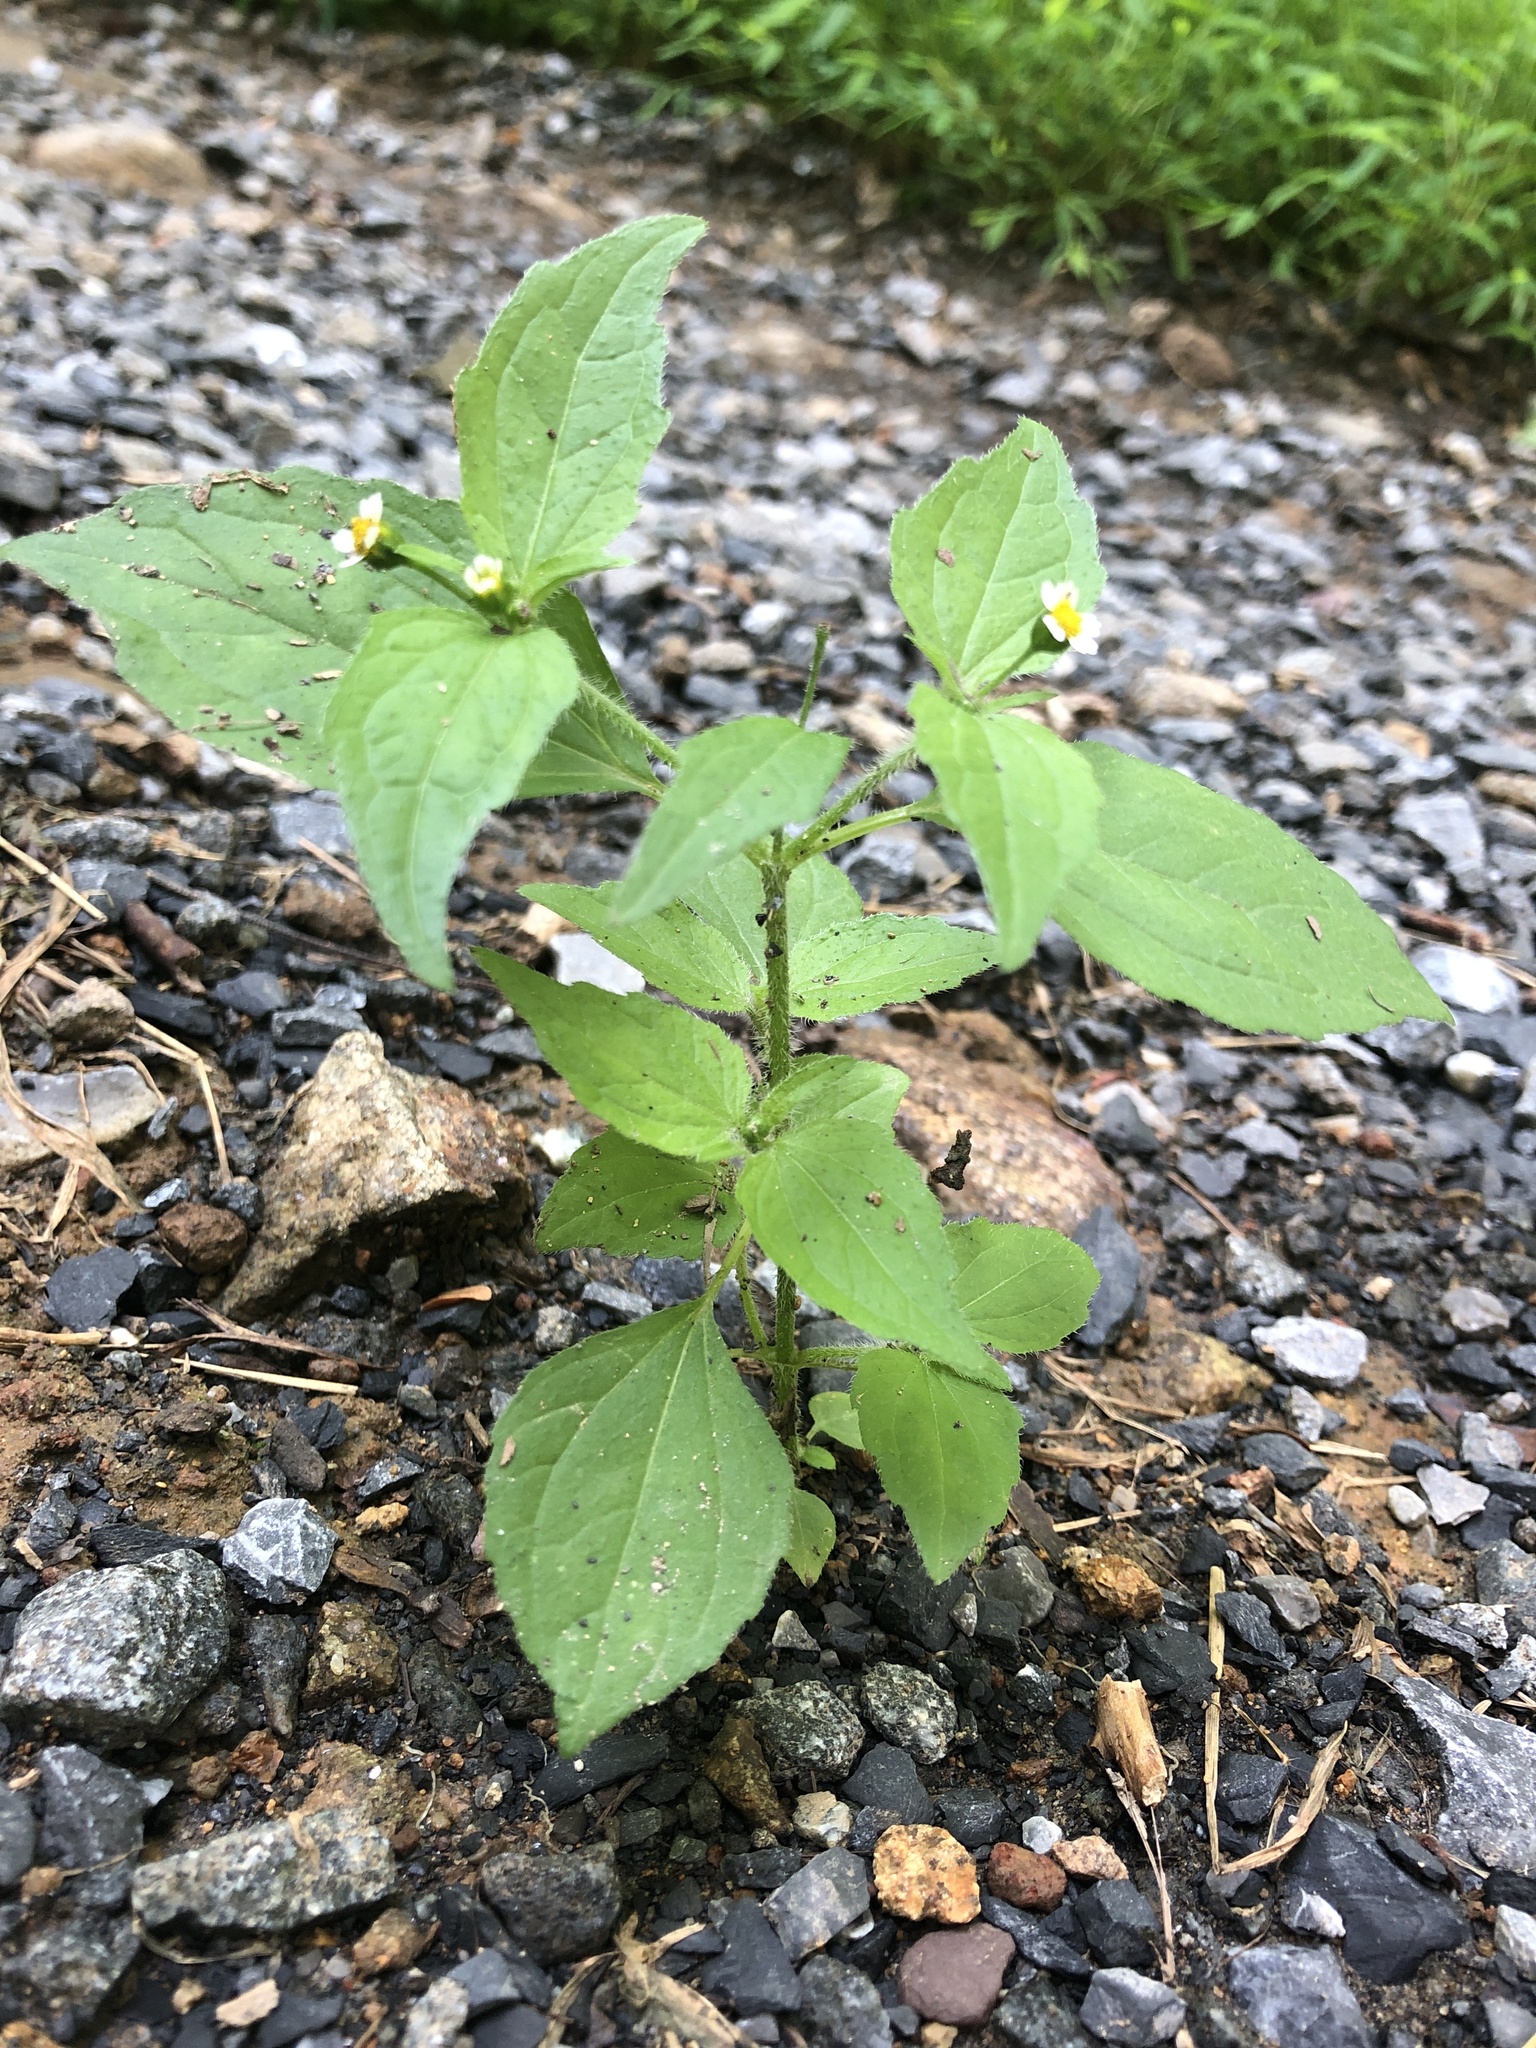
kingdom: Plantae
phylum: Tracheophyta
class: Magnoliopsida
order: Asterales
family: Asteraceae
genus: Galinsoga
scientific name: Galinsoga quadriradiata
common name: Shaggy soldier
